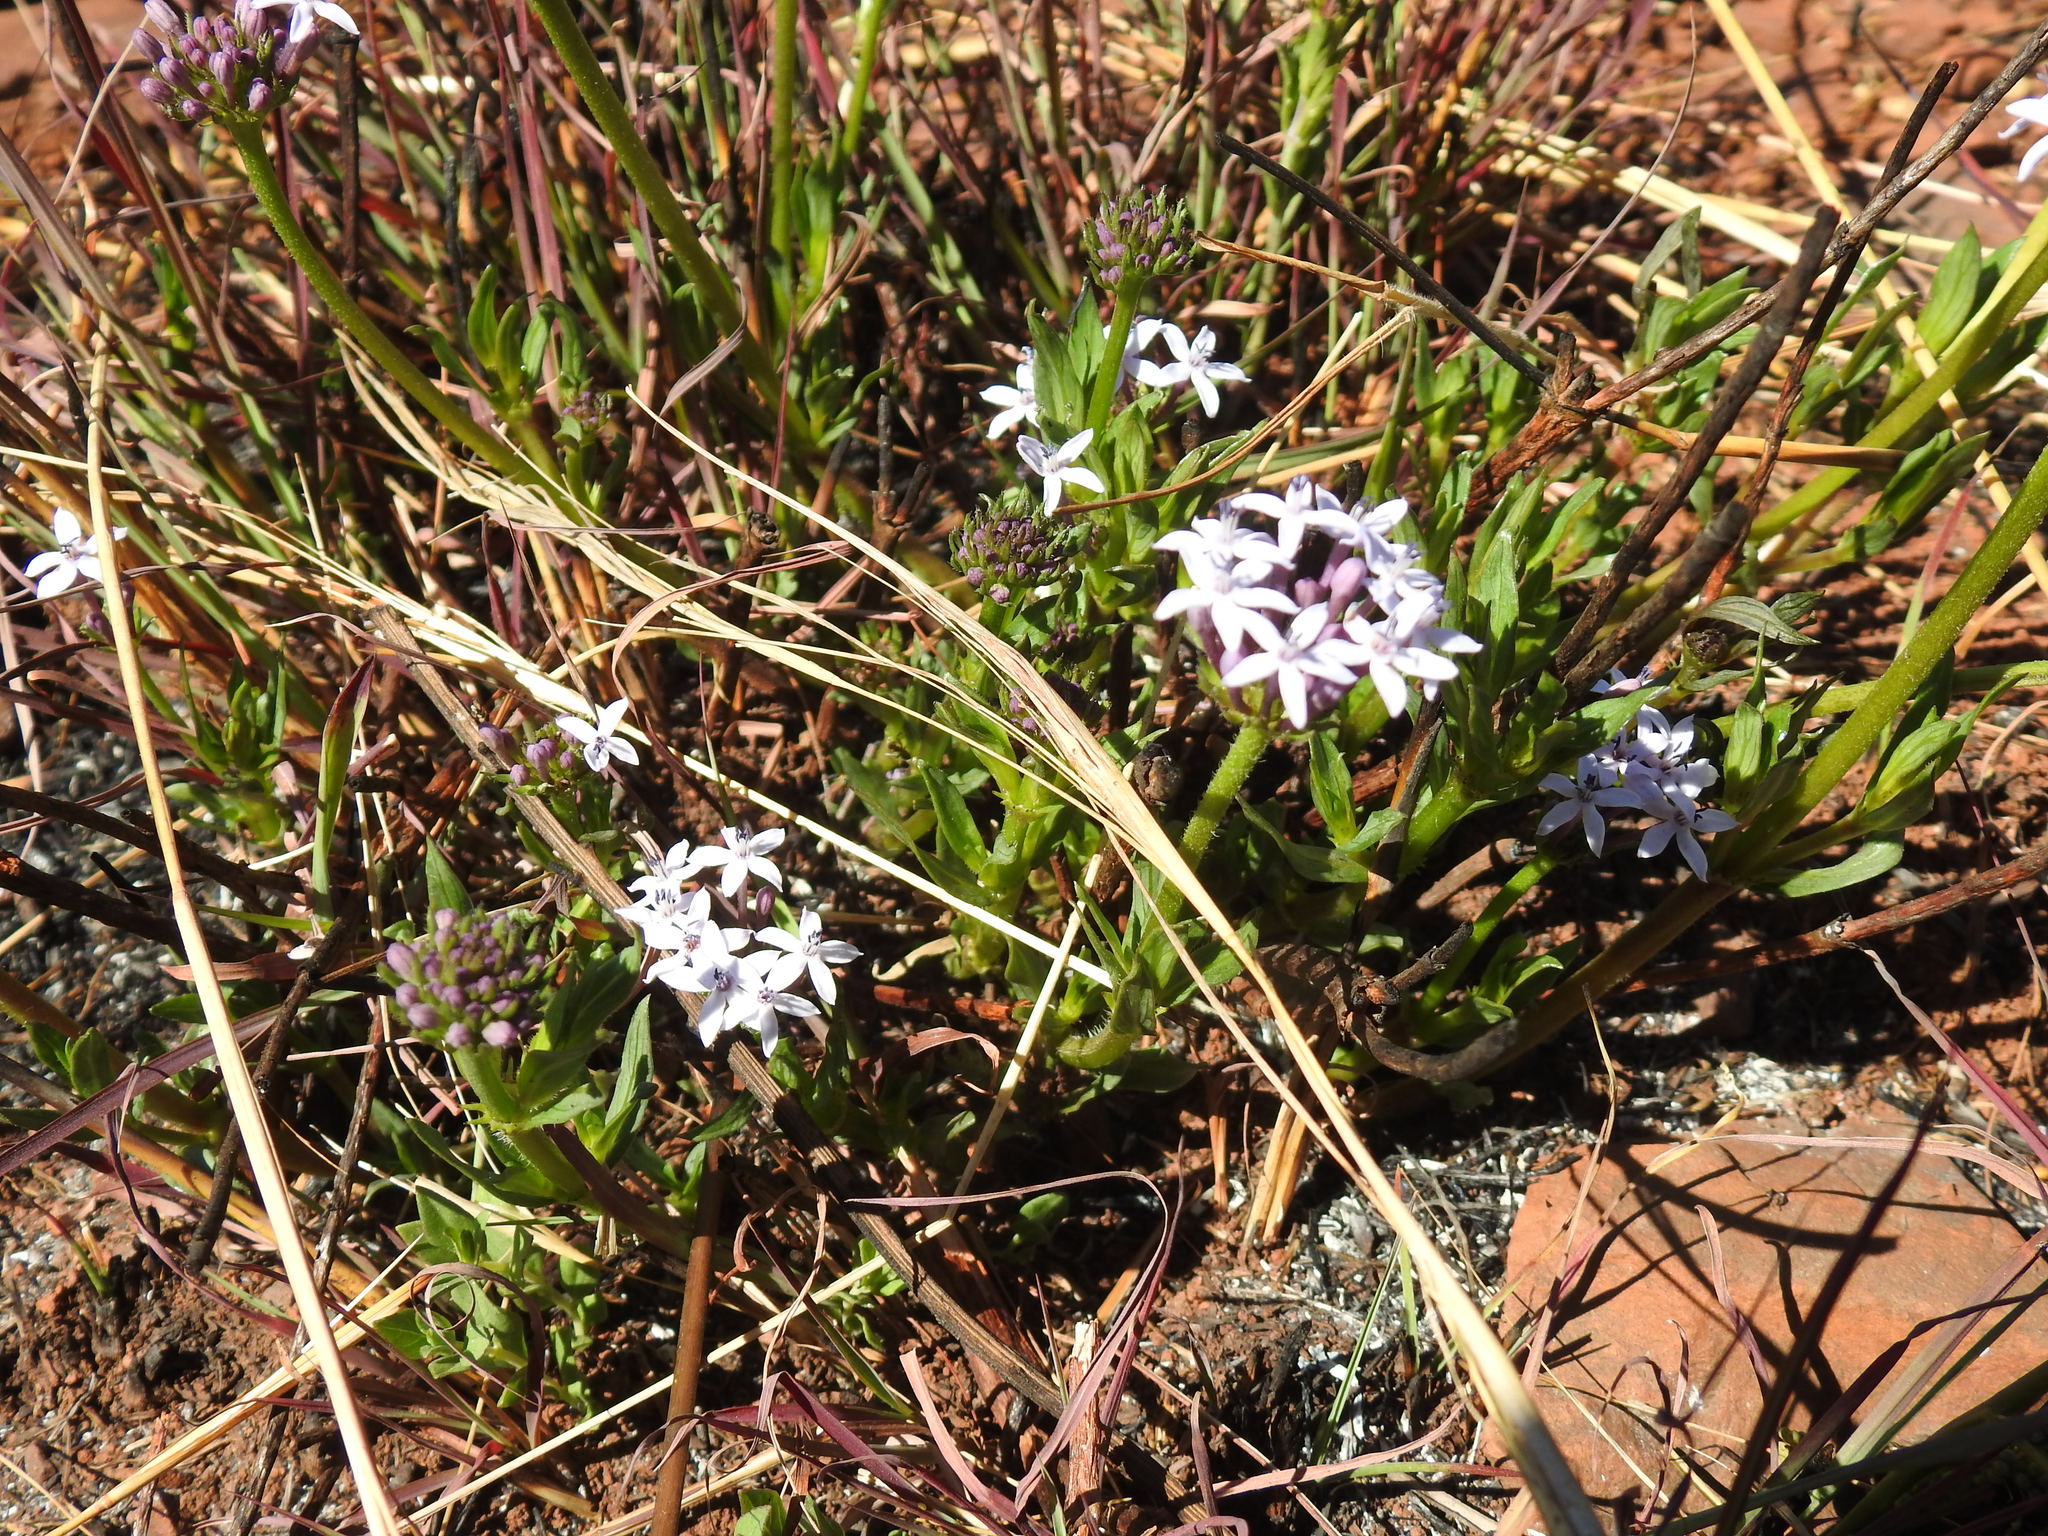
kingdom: Plantae
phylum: Tracheophyta
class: Magnoliopsida
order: Gentianales
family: Rubiaceae
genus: Pentanisia
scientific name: Pentanisia angustifolia
